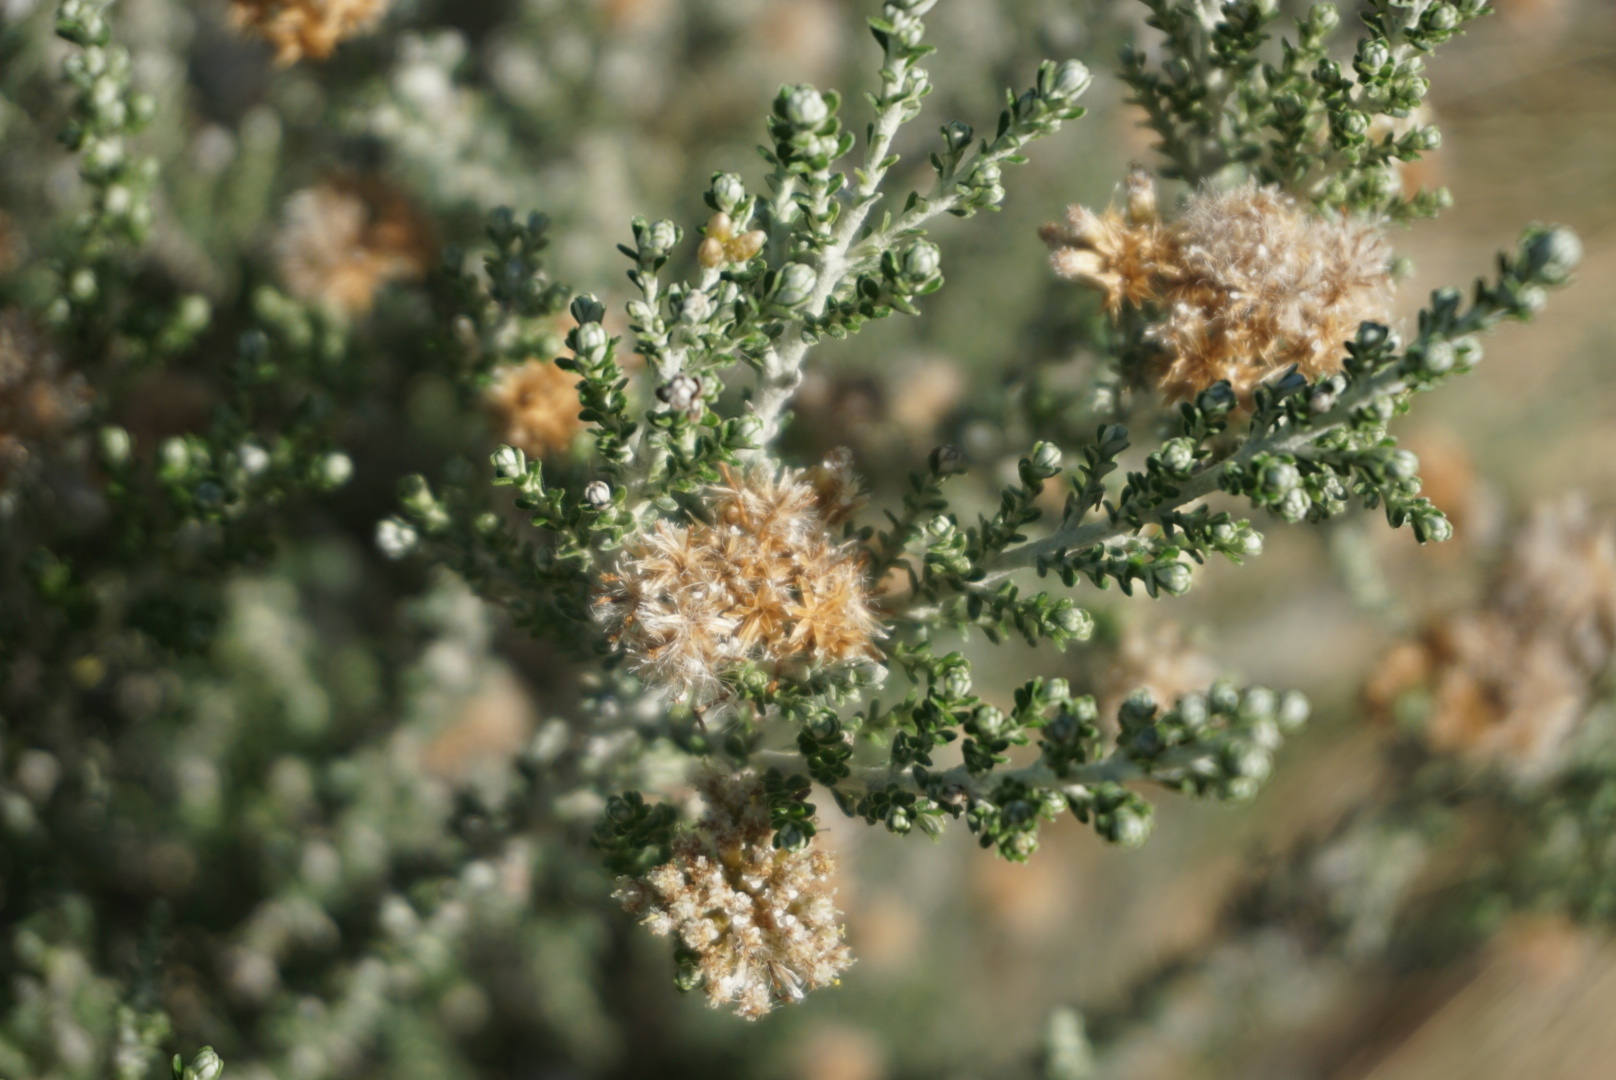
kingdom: Plantae
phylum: Tracheophyta
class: Magnoliopsida
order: Asterales
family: Asteraceae
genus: Ozothamnus
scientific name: Ozothamnus leptophyllus
